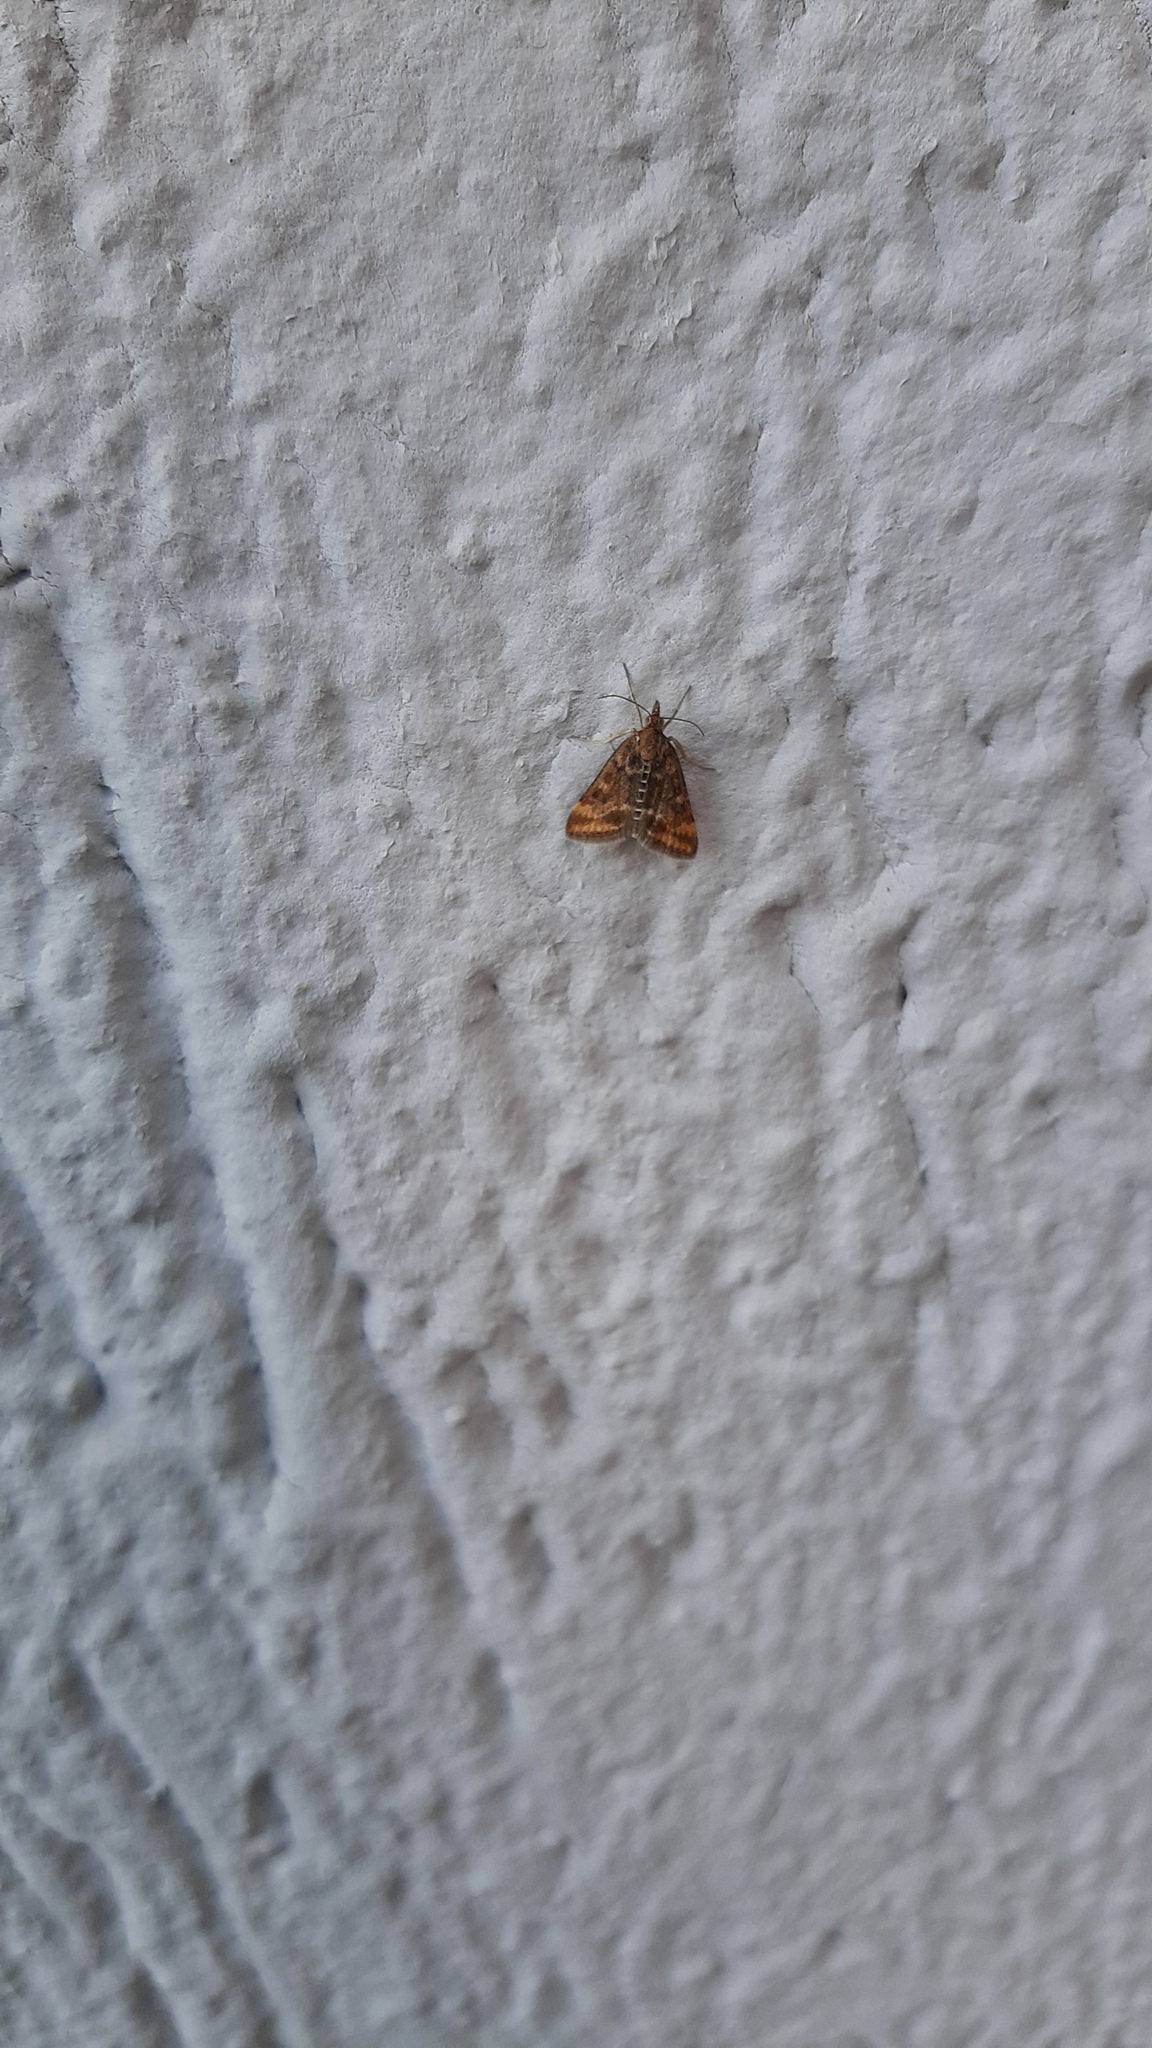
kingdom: Animalia
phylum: Arthropoda
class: Insecta
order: Lepidoptera
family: Crambidae
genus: Pyrausta
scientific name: Pyrausta despicata
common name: Straw-barred pearl
